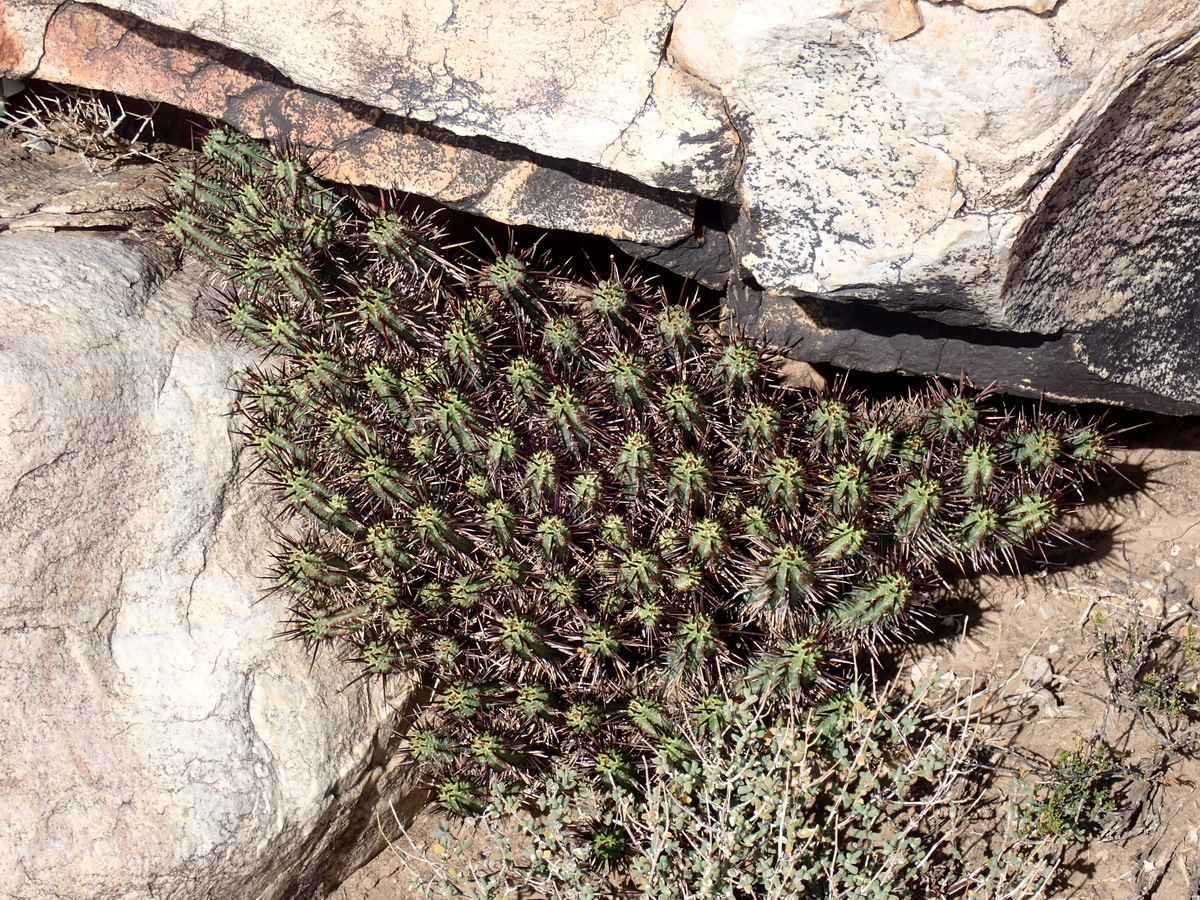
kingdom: Plantae
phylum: Tracheophyta
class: Magnoliopsida
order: Malpighiales
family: Euphorbiaceae
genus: Euphorbia
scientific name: Euphorbia heptagona
